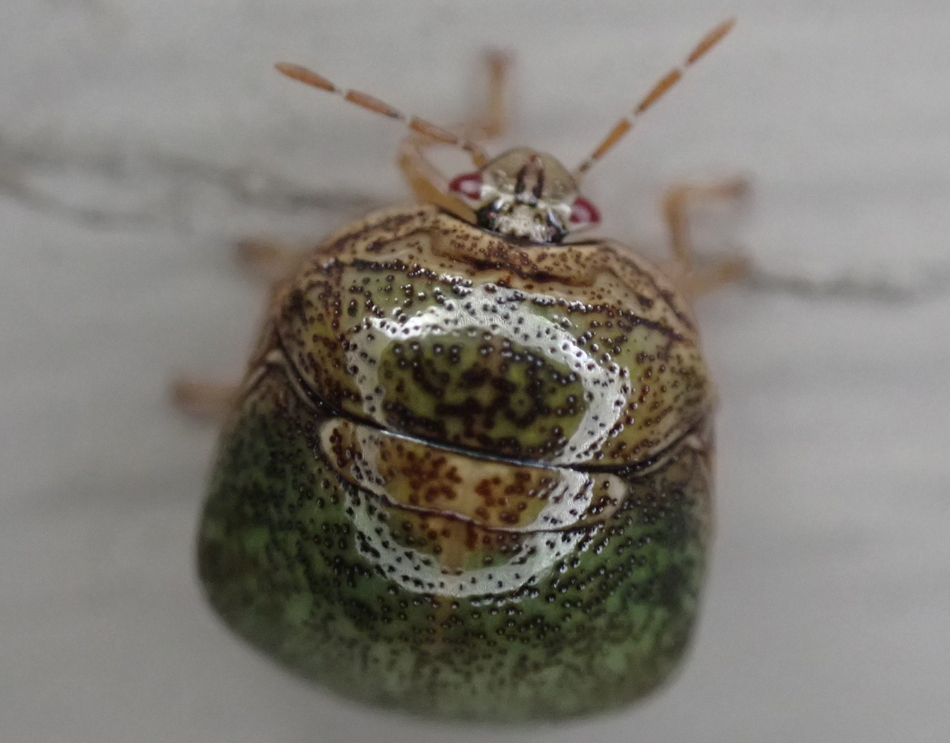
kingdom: Animalia
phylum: Arthropoda
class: Insecta
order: Hemiptera
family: Plataspidae
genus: Megacopta
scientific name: Megacopta cribraria
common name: Bean plataspid
